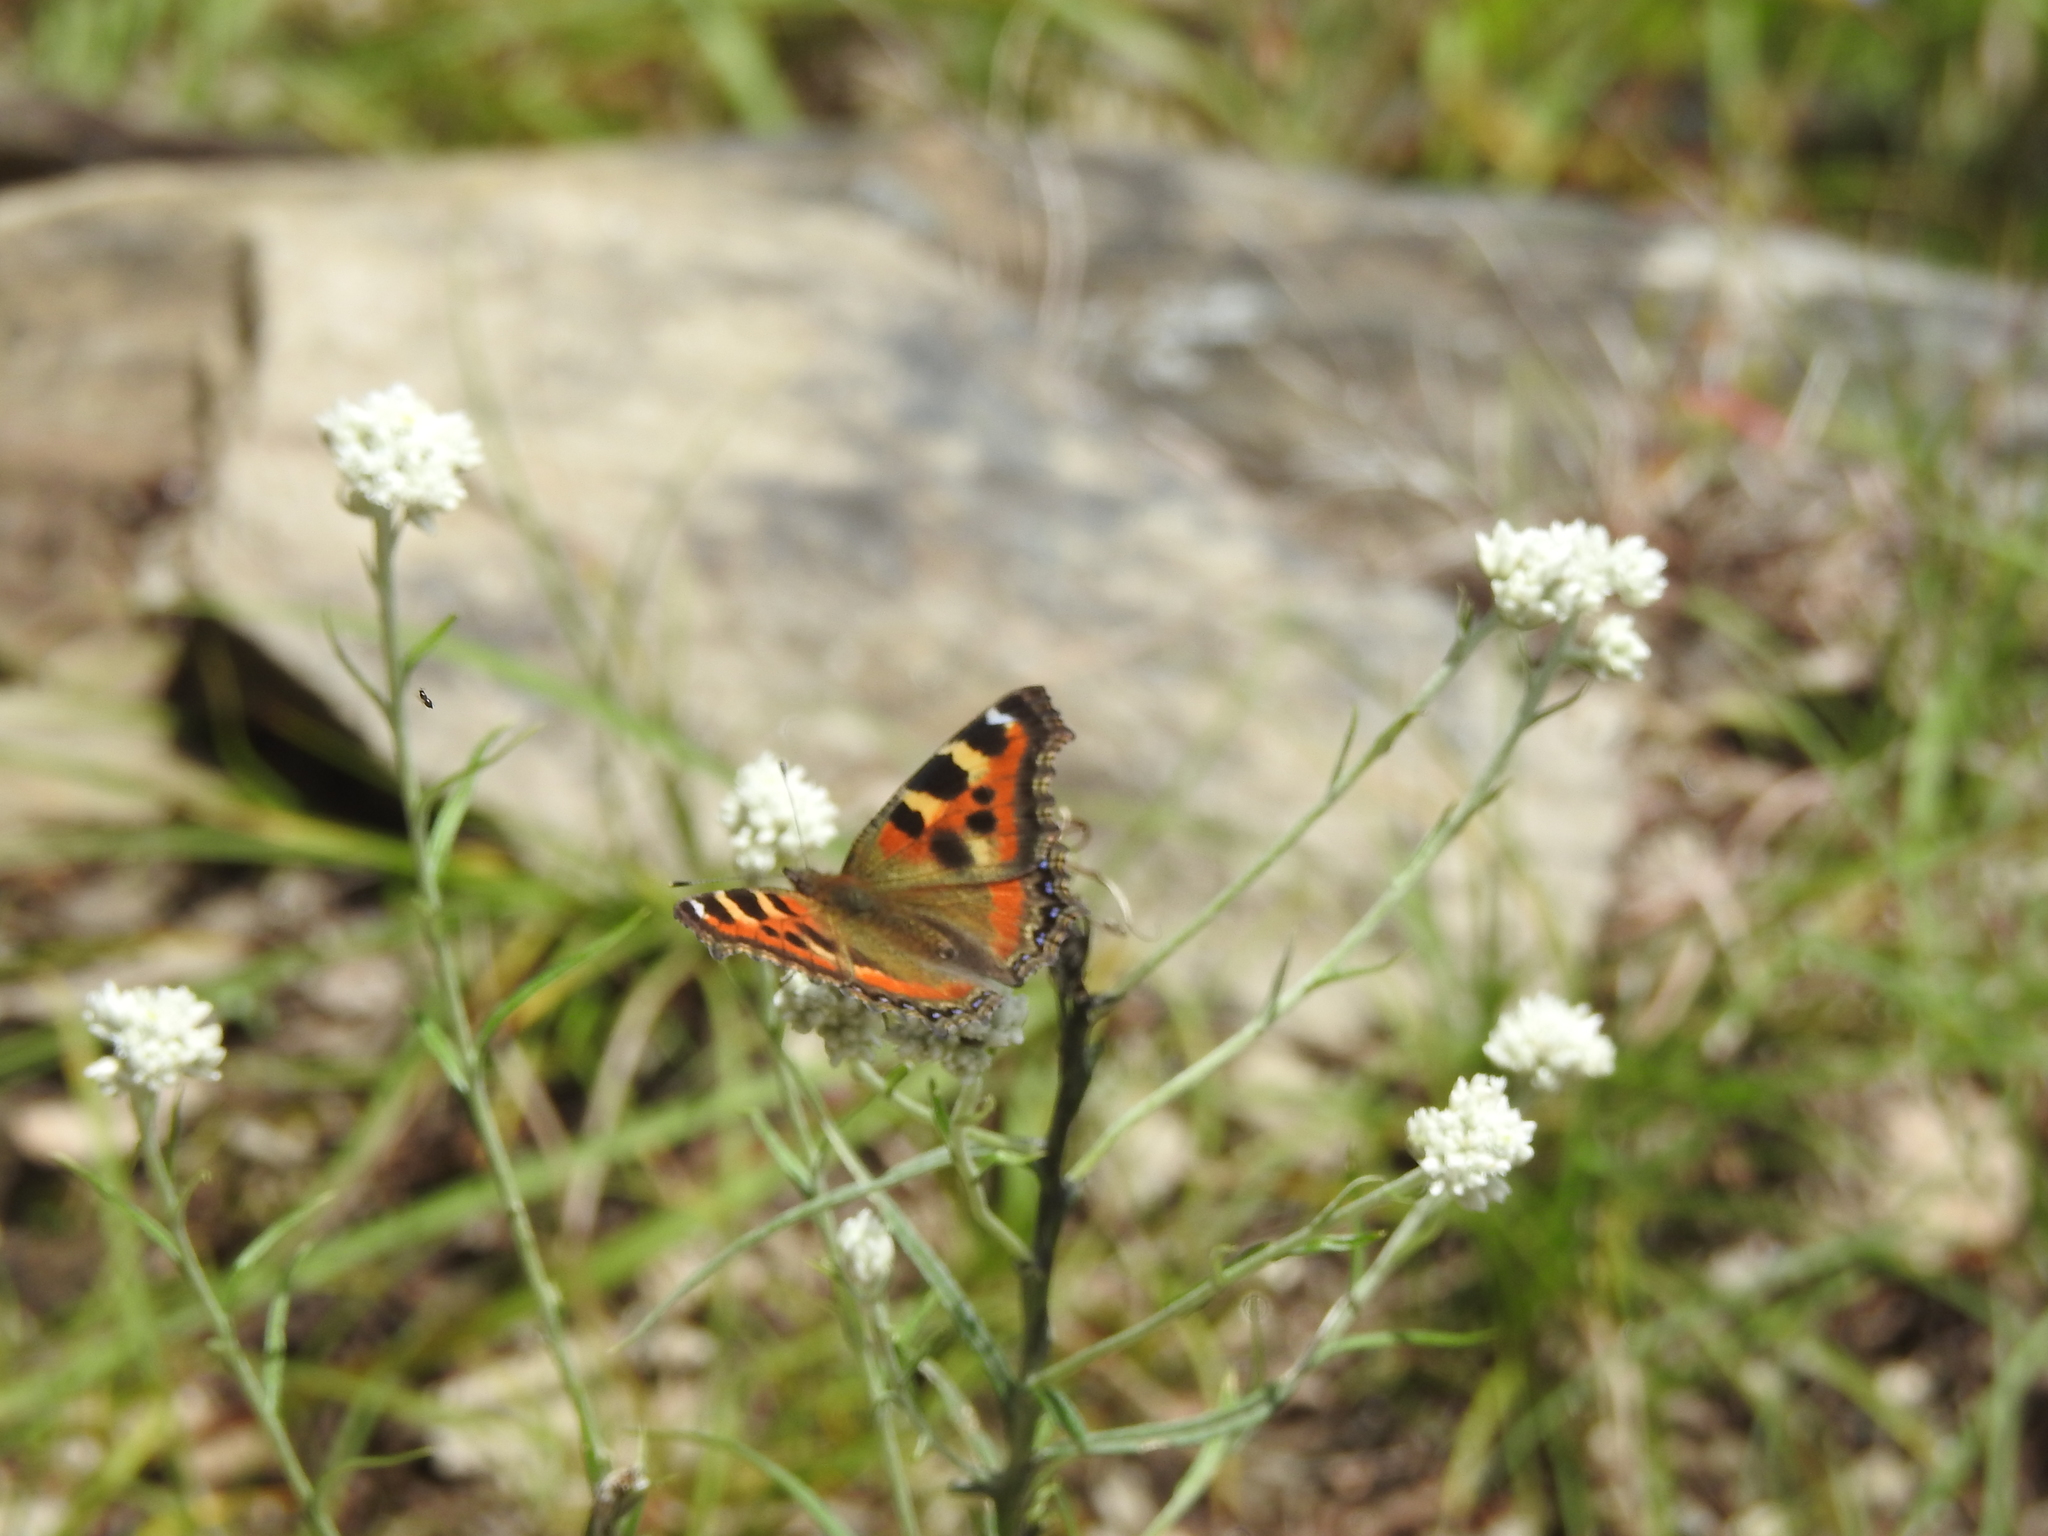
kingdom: Animalia
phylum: Arthropoda
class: Insecta
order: Lepidoptera
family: Nymphalidae
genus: Aglais
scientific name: Aglais caschmirensis
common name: Indian tortoiseshell
